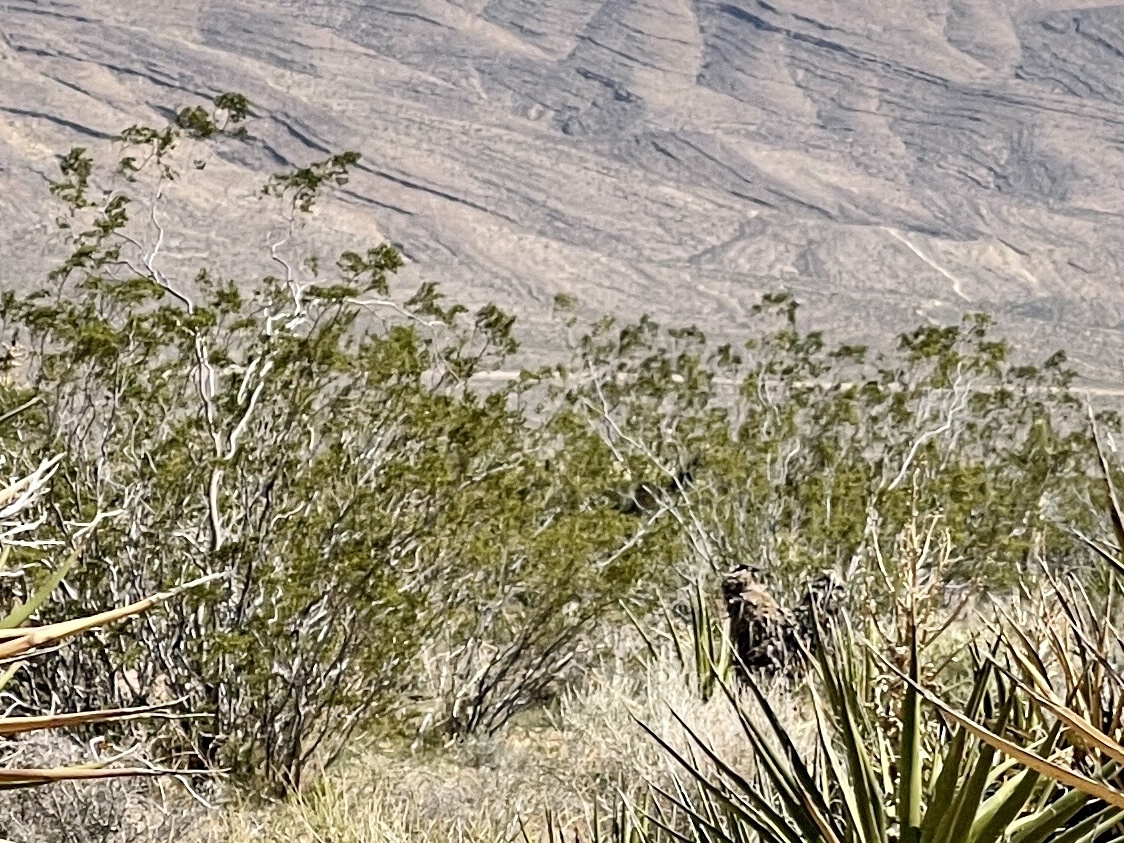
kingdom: Plantae
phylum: Tracheophyta
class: Magnoliopsida
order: Zygophyllales
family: Zygophyllaceae
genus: Larrea
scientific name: Larrea tridentata
